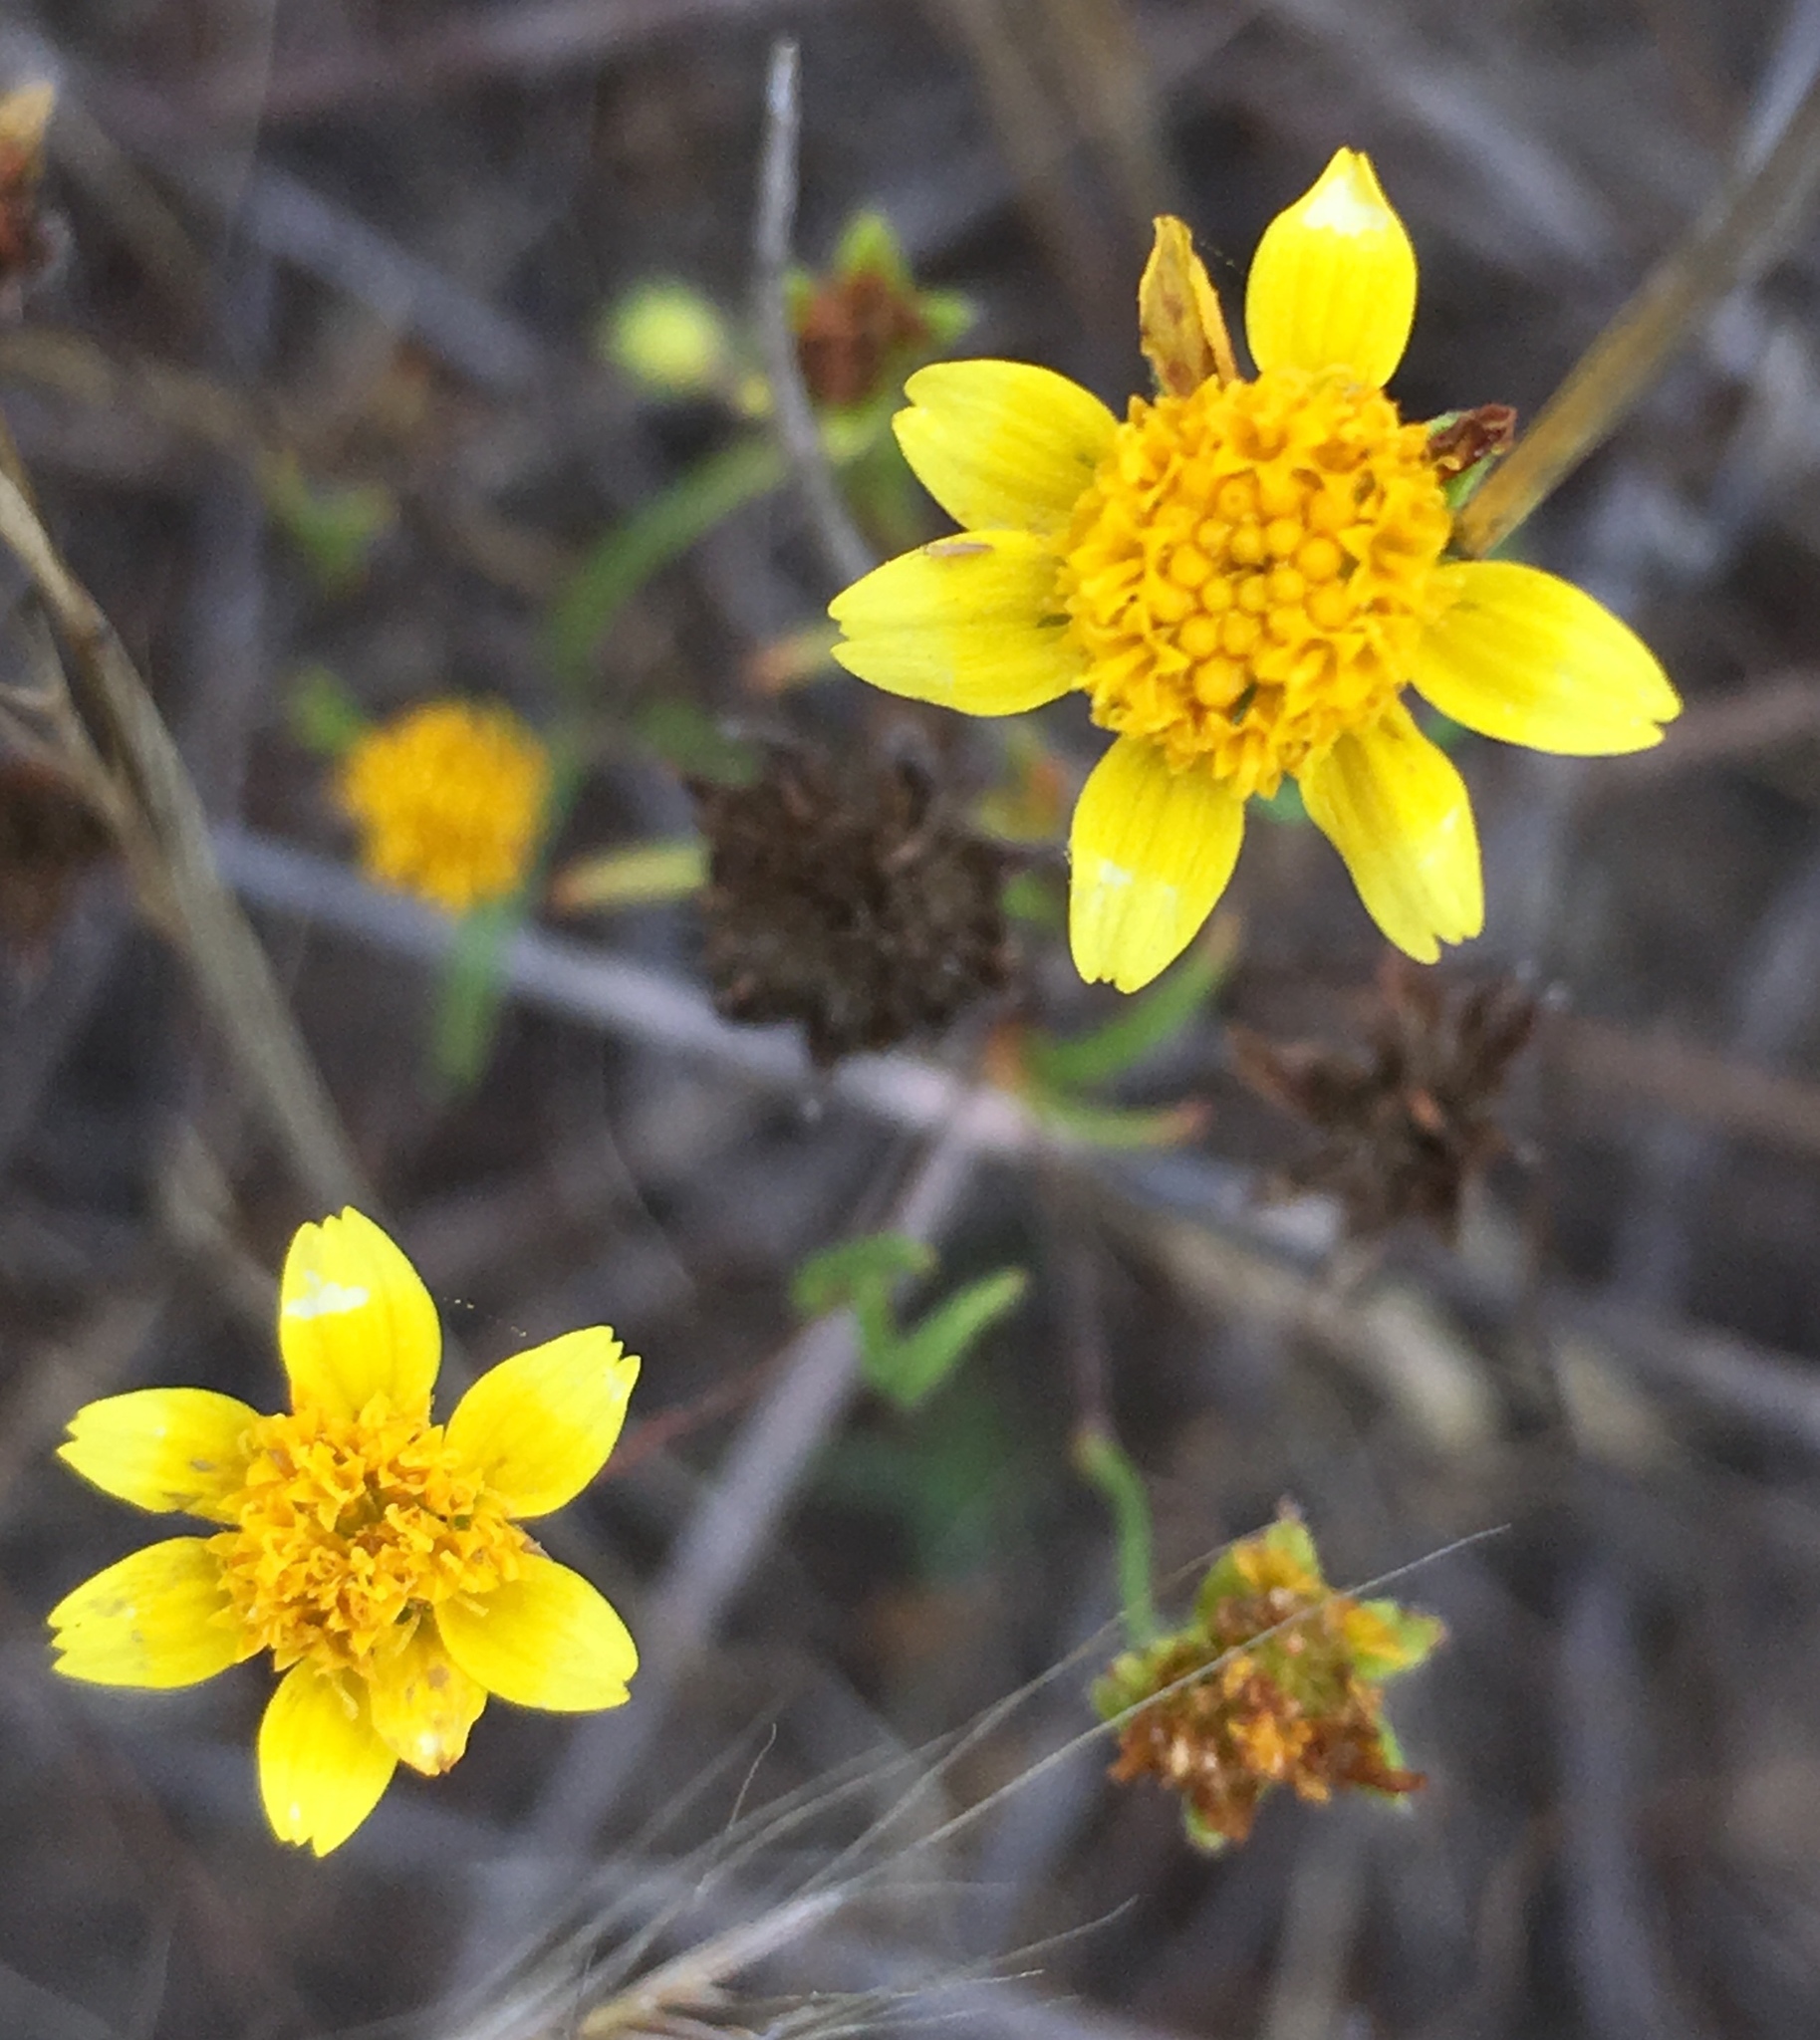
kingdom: Plantae
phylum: Tracheophyta
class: Magnoliopsida
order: Asterales
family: Asteraceae
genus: Lasthenia
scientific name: Lasthenia gracilis
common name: Common goldfields
